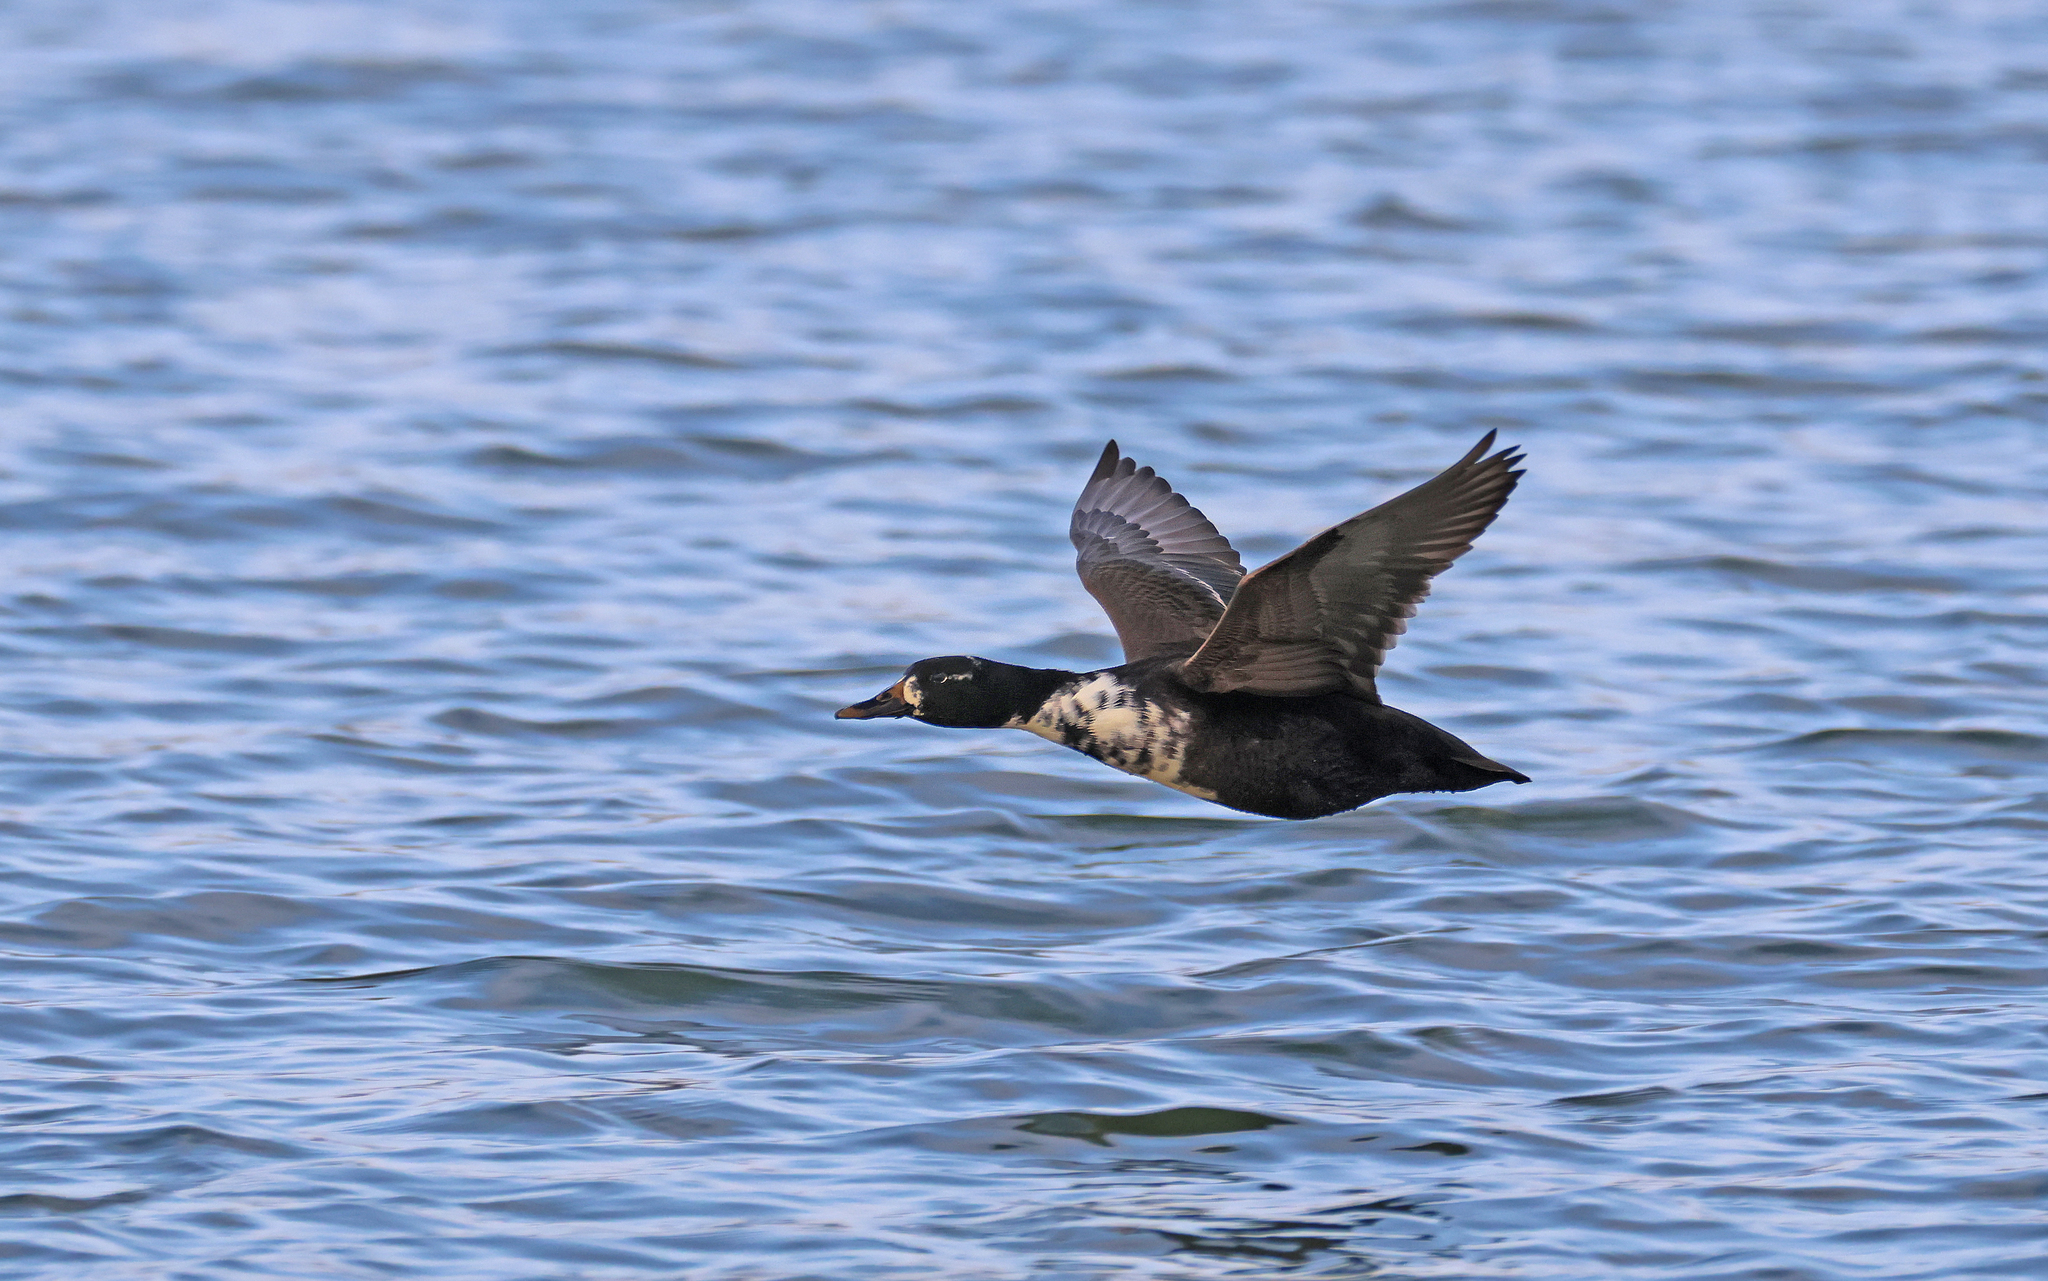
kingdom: Animalia
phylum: Chordata
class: Aves
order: Anseriformes
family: Anatidae
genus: Anas
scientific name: Anas platyrhynchos
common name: Mallard
